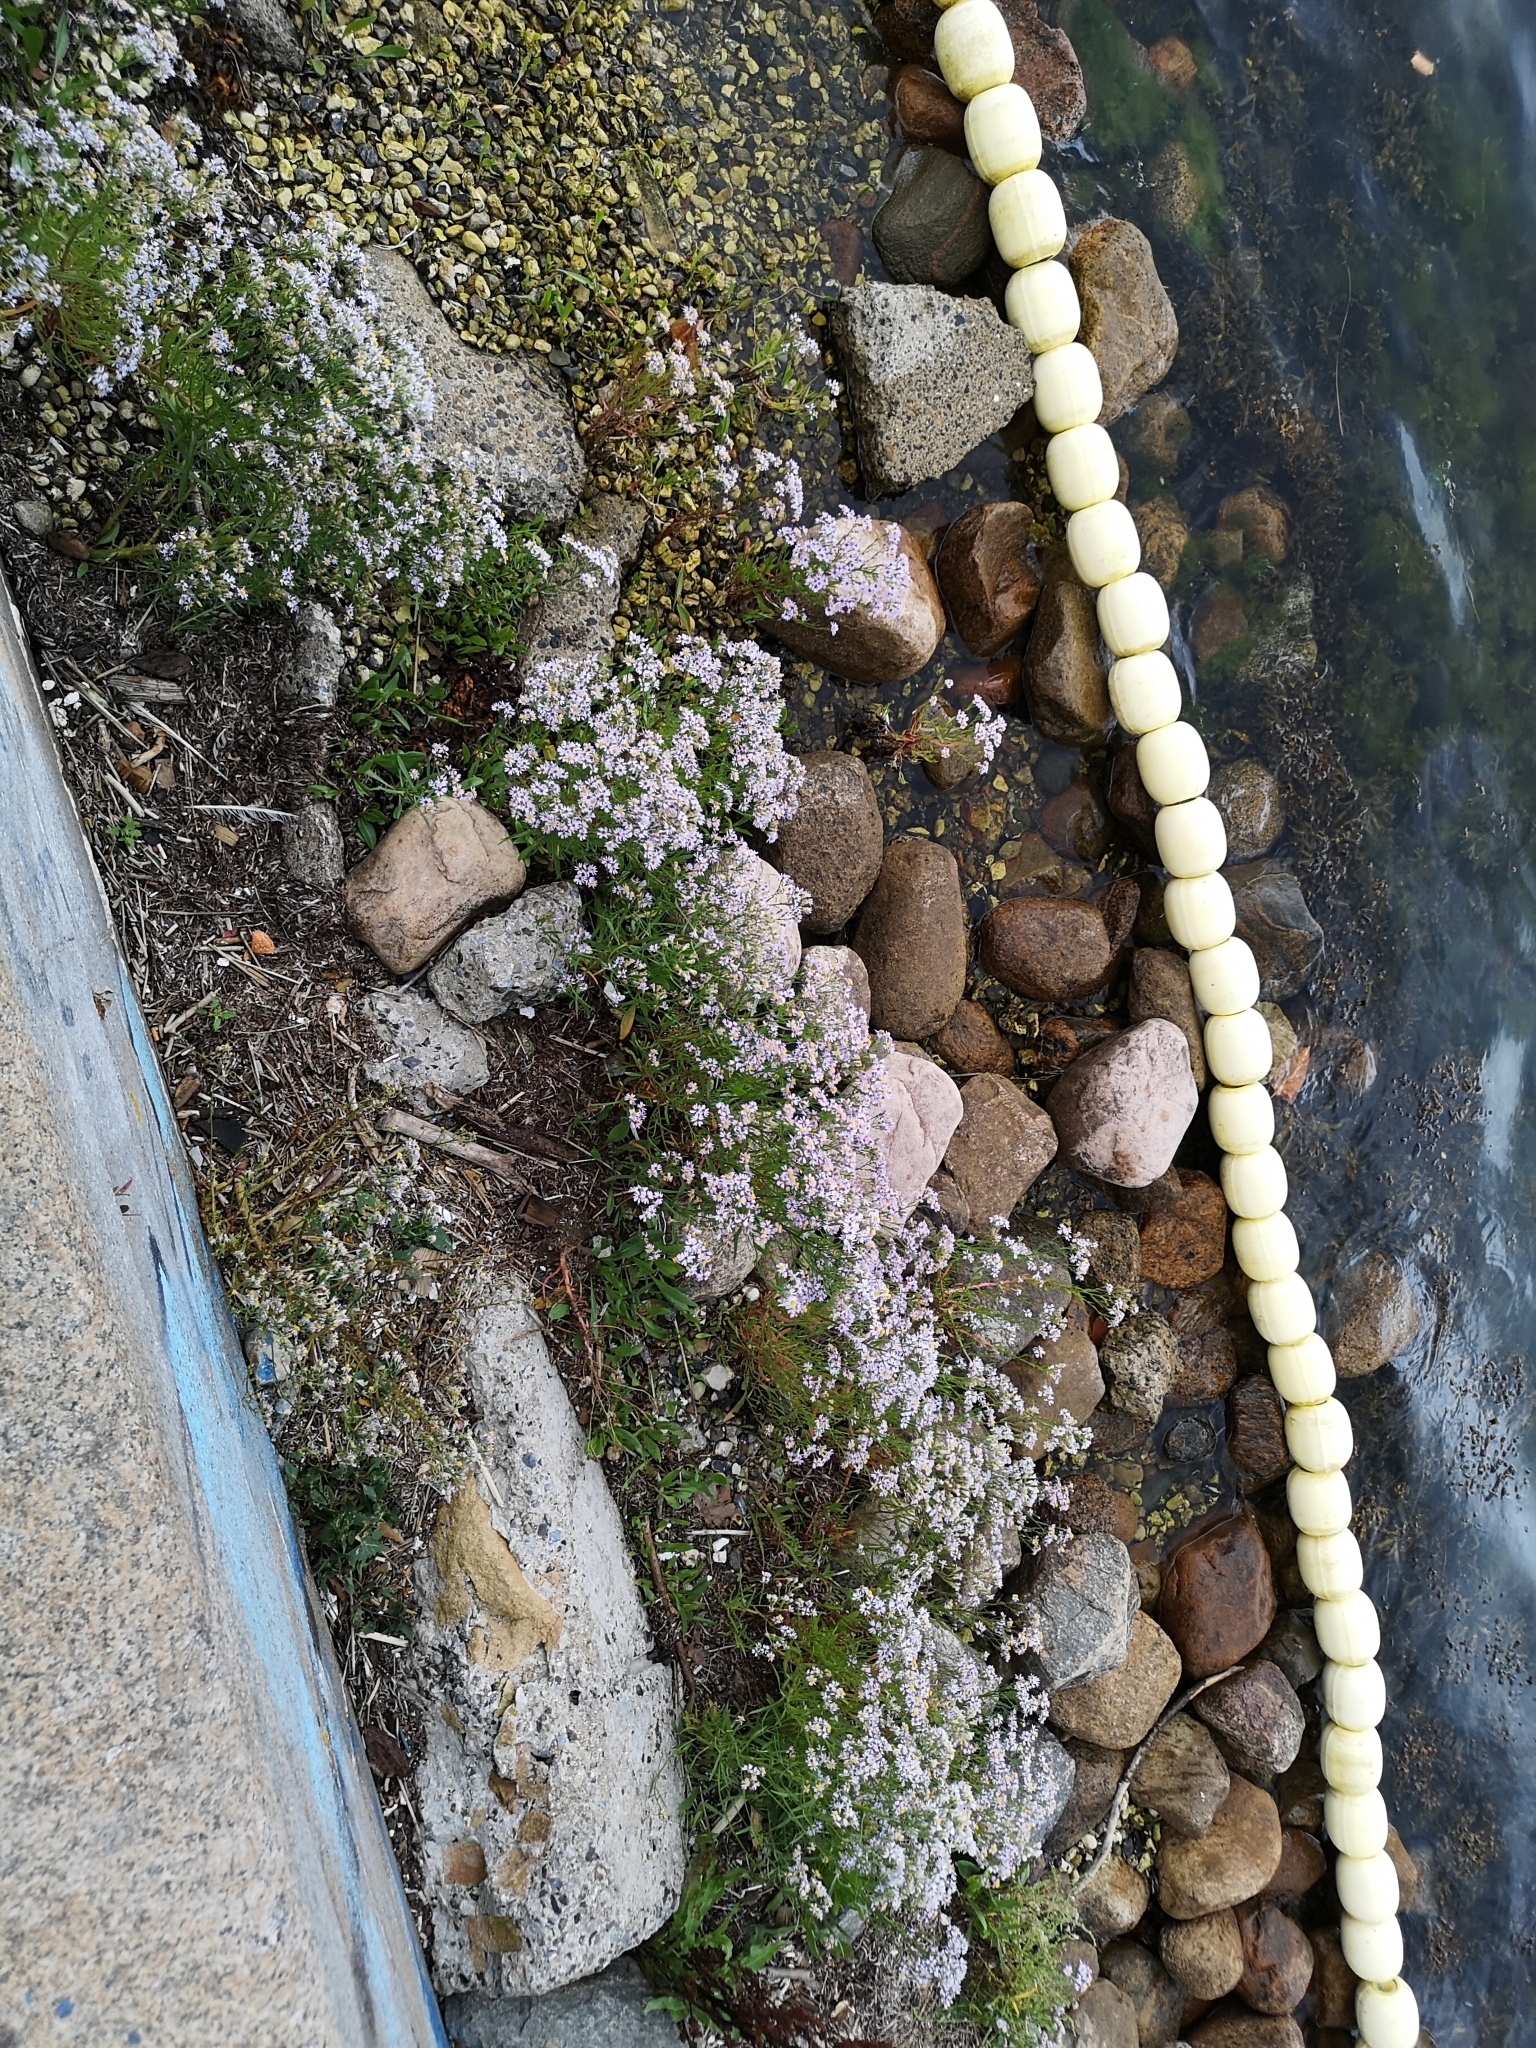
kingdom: Plantae
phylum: Tracheophyta
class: Magnoliopsida
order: Asterales
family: Asteraceae
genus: Tripolium
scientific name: Tripolium pannonicum
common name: Sea aster
